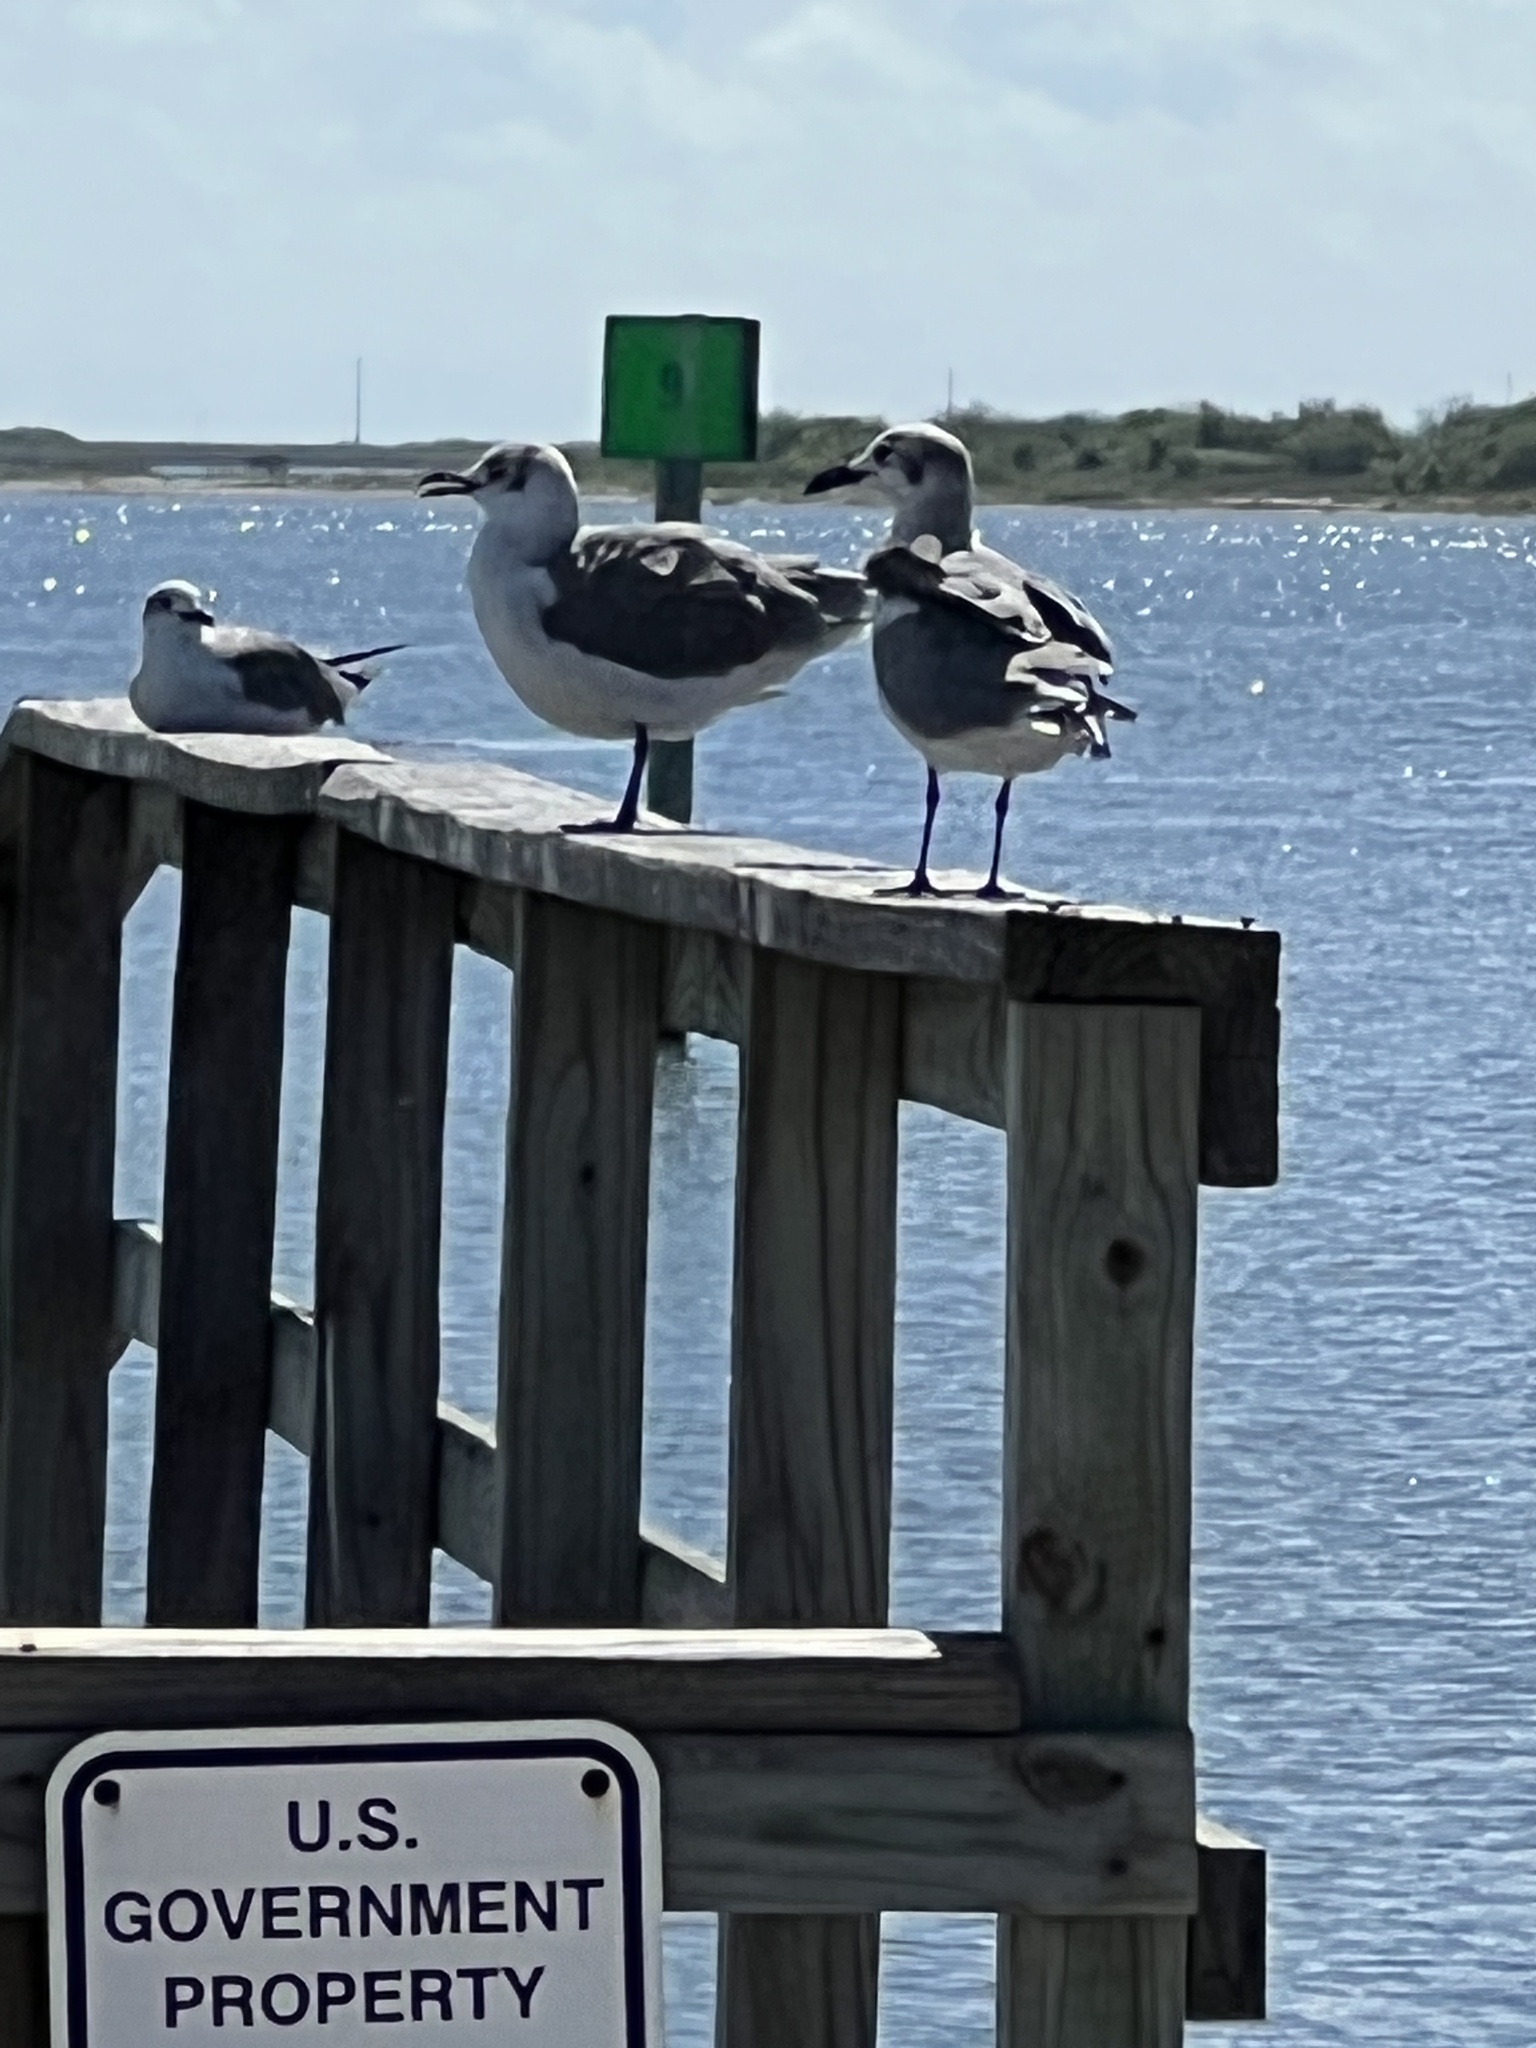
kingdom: Animalia
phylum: Chordata
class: Aves
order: Charadriiformes
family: Laridae
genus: Leucophaeus
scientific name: Leucophaeus atricilla
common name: Laughing gull
